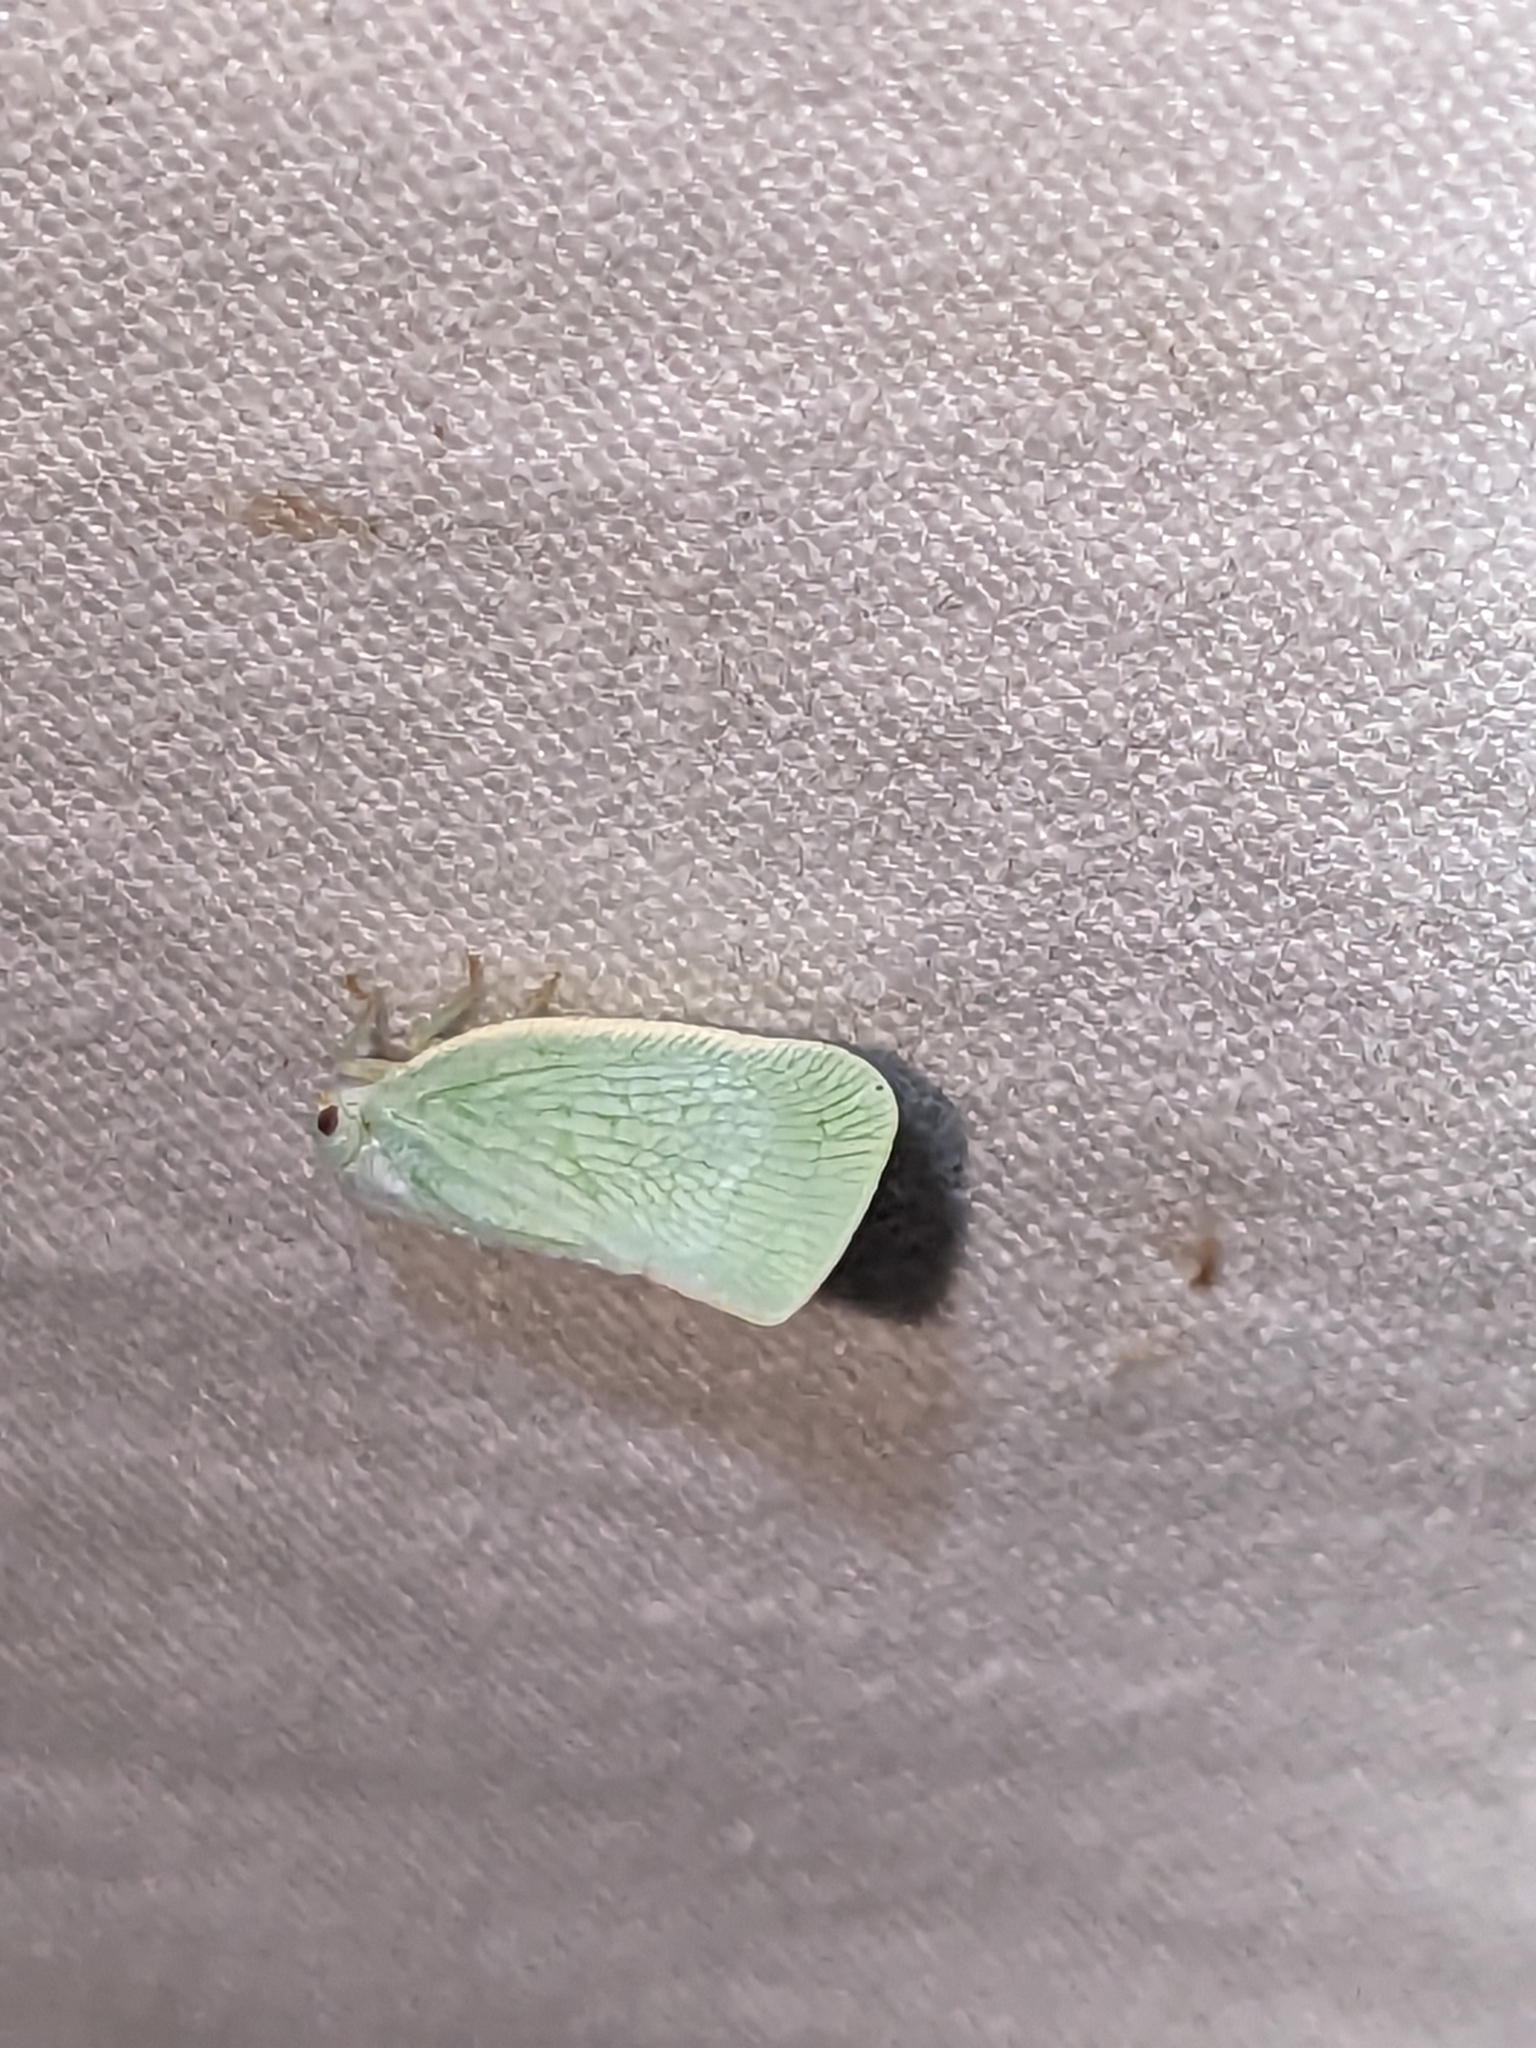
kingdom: Animalia
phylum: Arthropoda
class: Insecta
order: Hemiptera
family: Flatidae
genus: Flatormenis
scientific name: Flatormenis proxima
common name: Northern flatid planthopper
